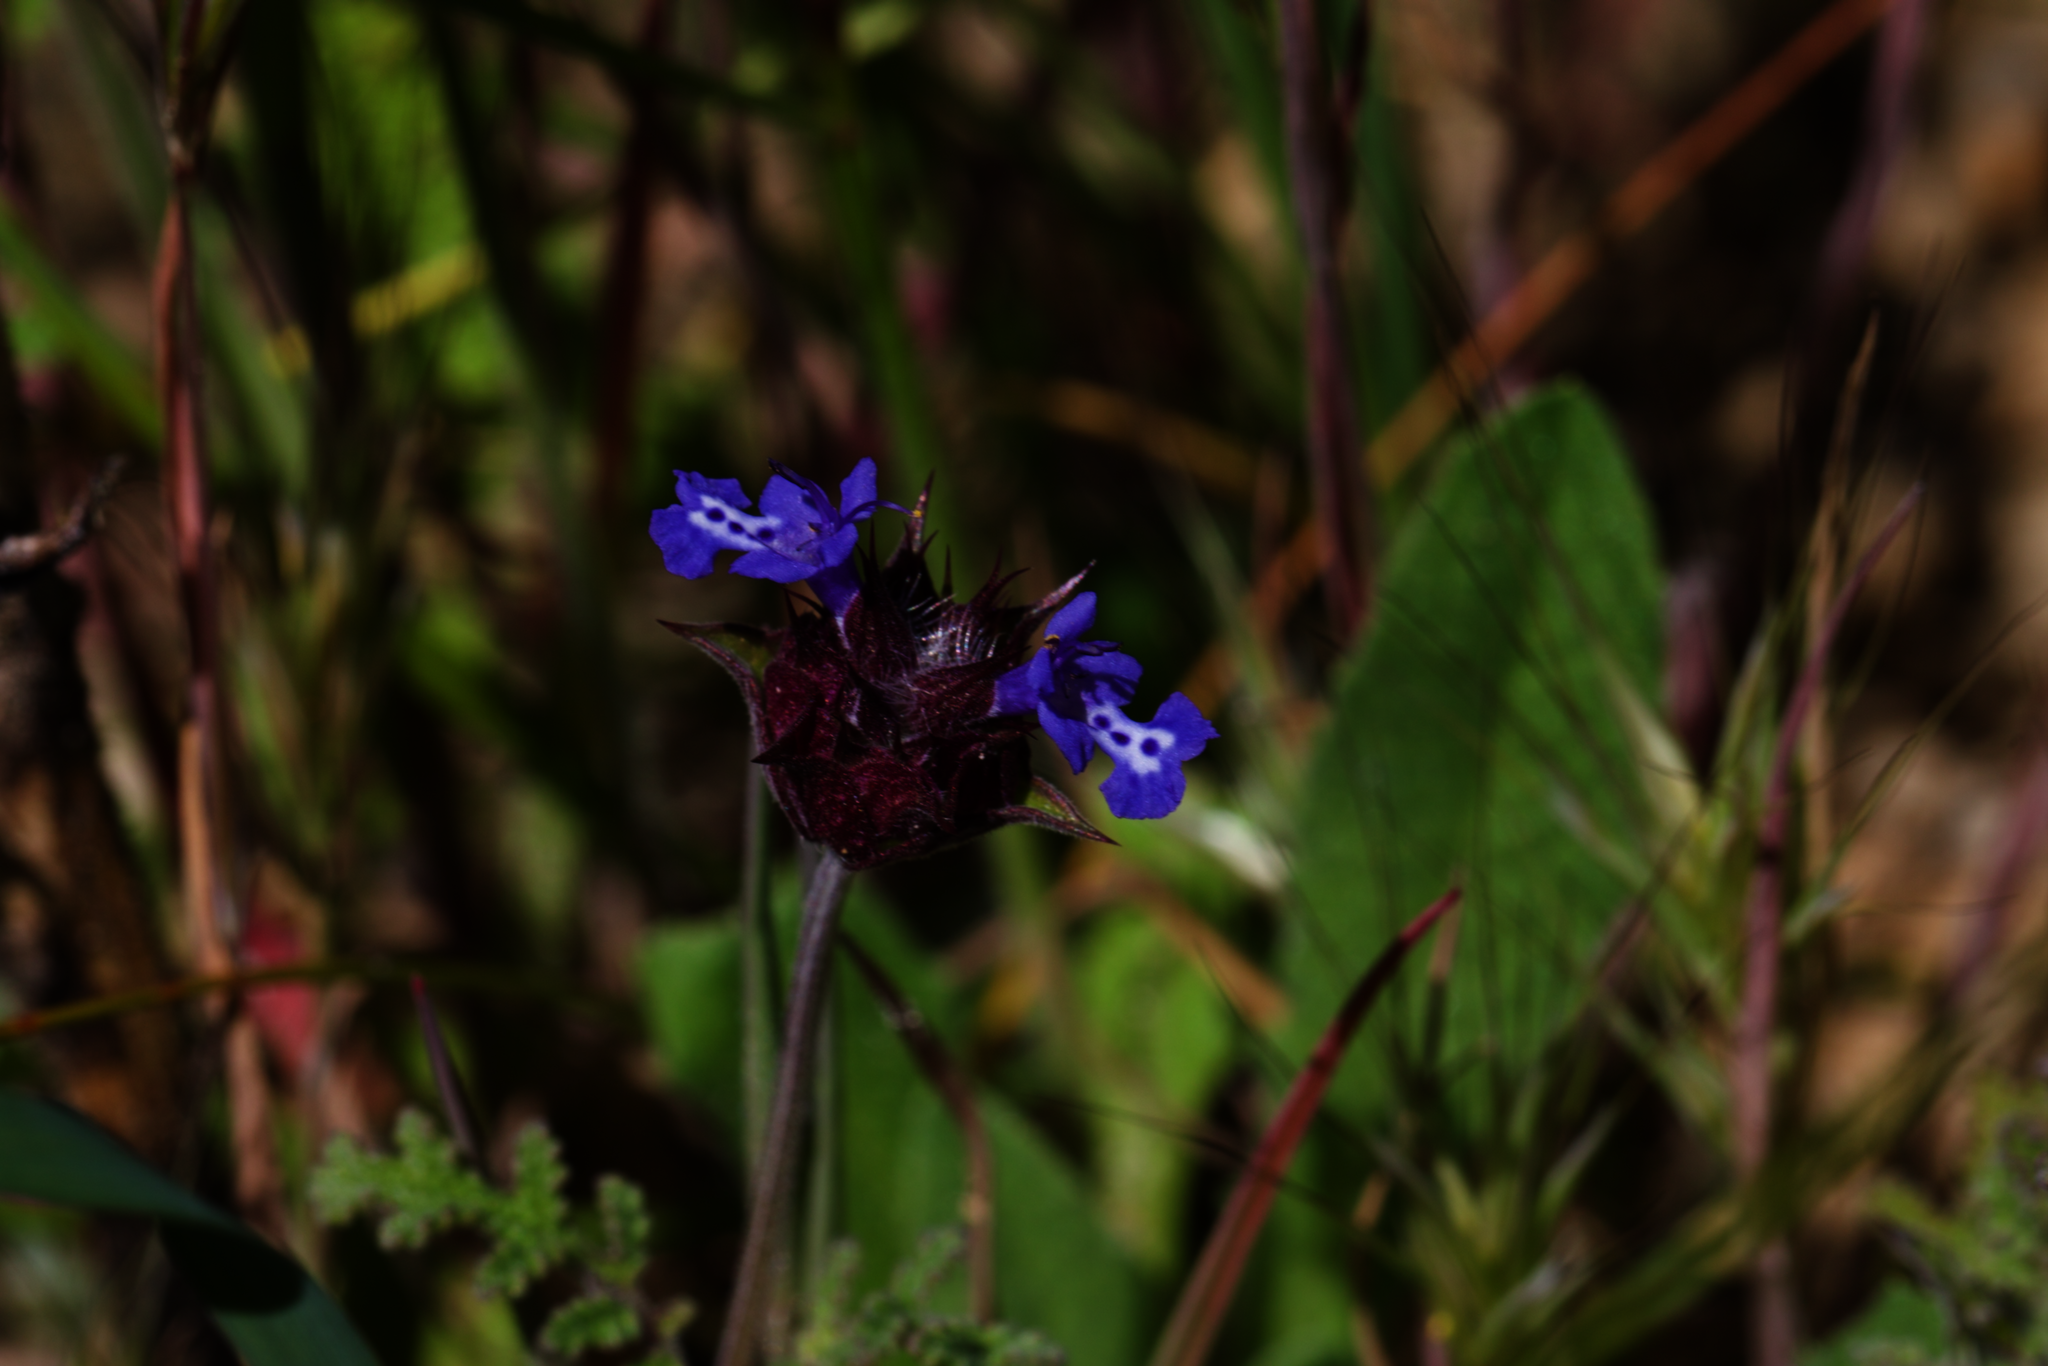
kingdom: Plantae
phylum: Tracheophyta
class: Magnoliopsida
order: Lamiales
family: Lamiaceae
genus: Salvia
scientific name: Salvia columbariae
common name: Chia
